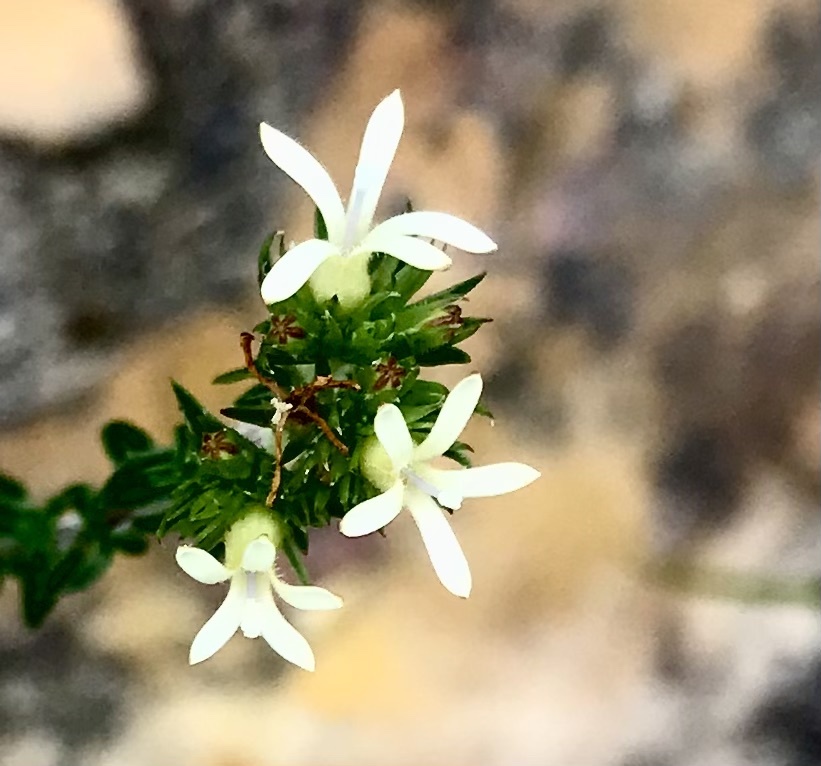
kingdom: Plantae
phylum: Tracheophyta
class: Magnoliopsida
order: Asterales
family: Campanulaceae
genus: Wahlenbergia
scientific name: Wahlenbergia desmantha
